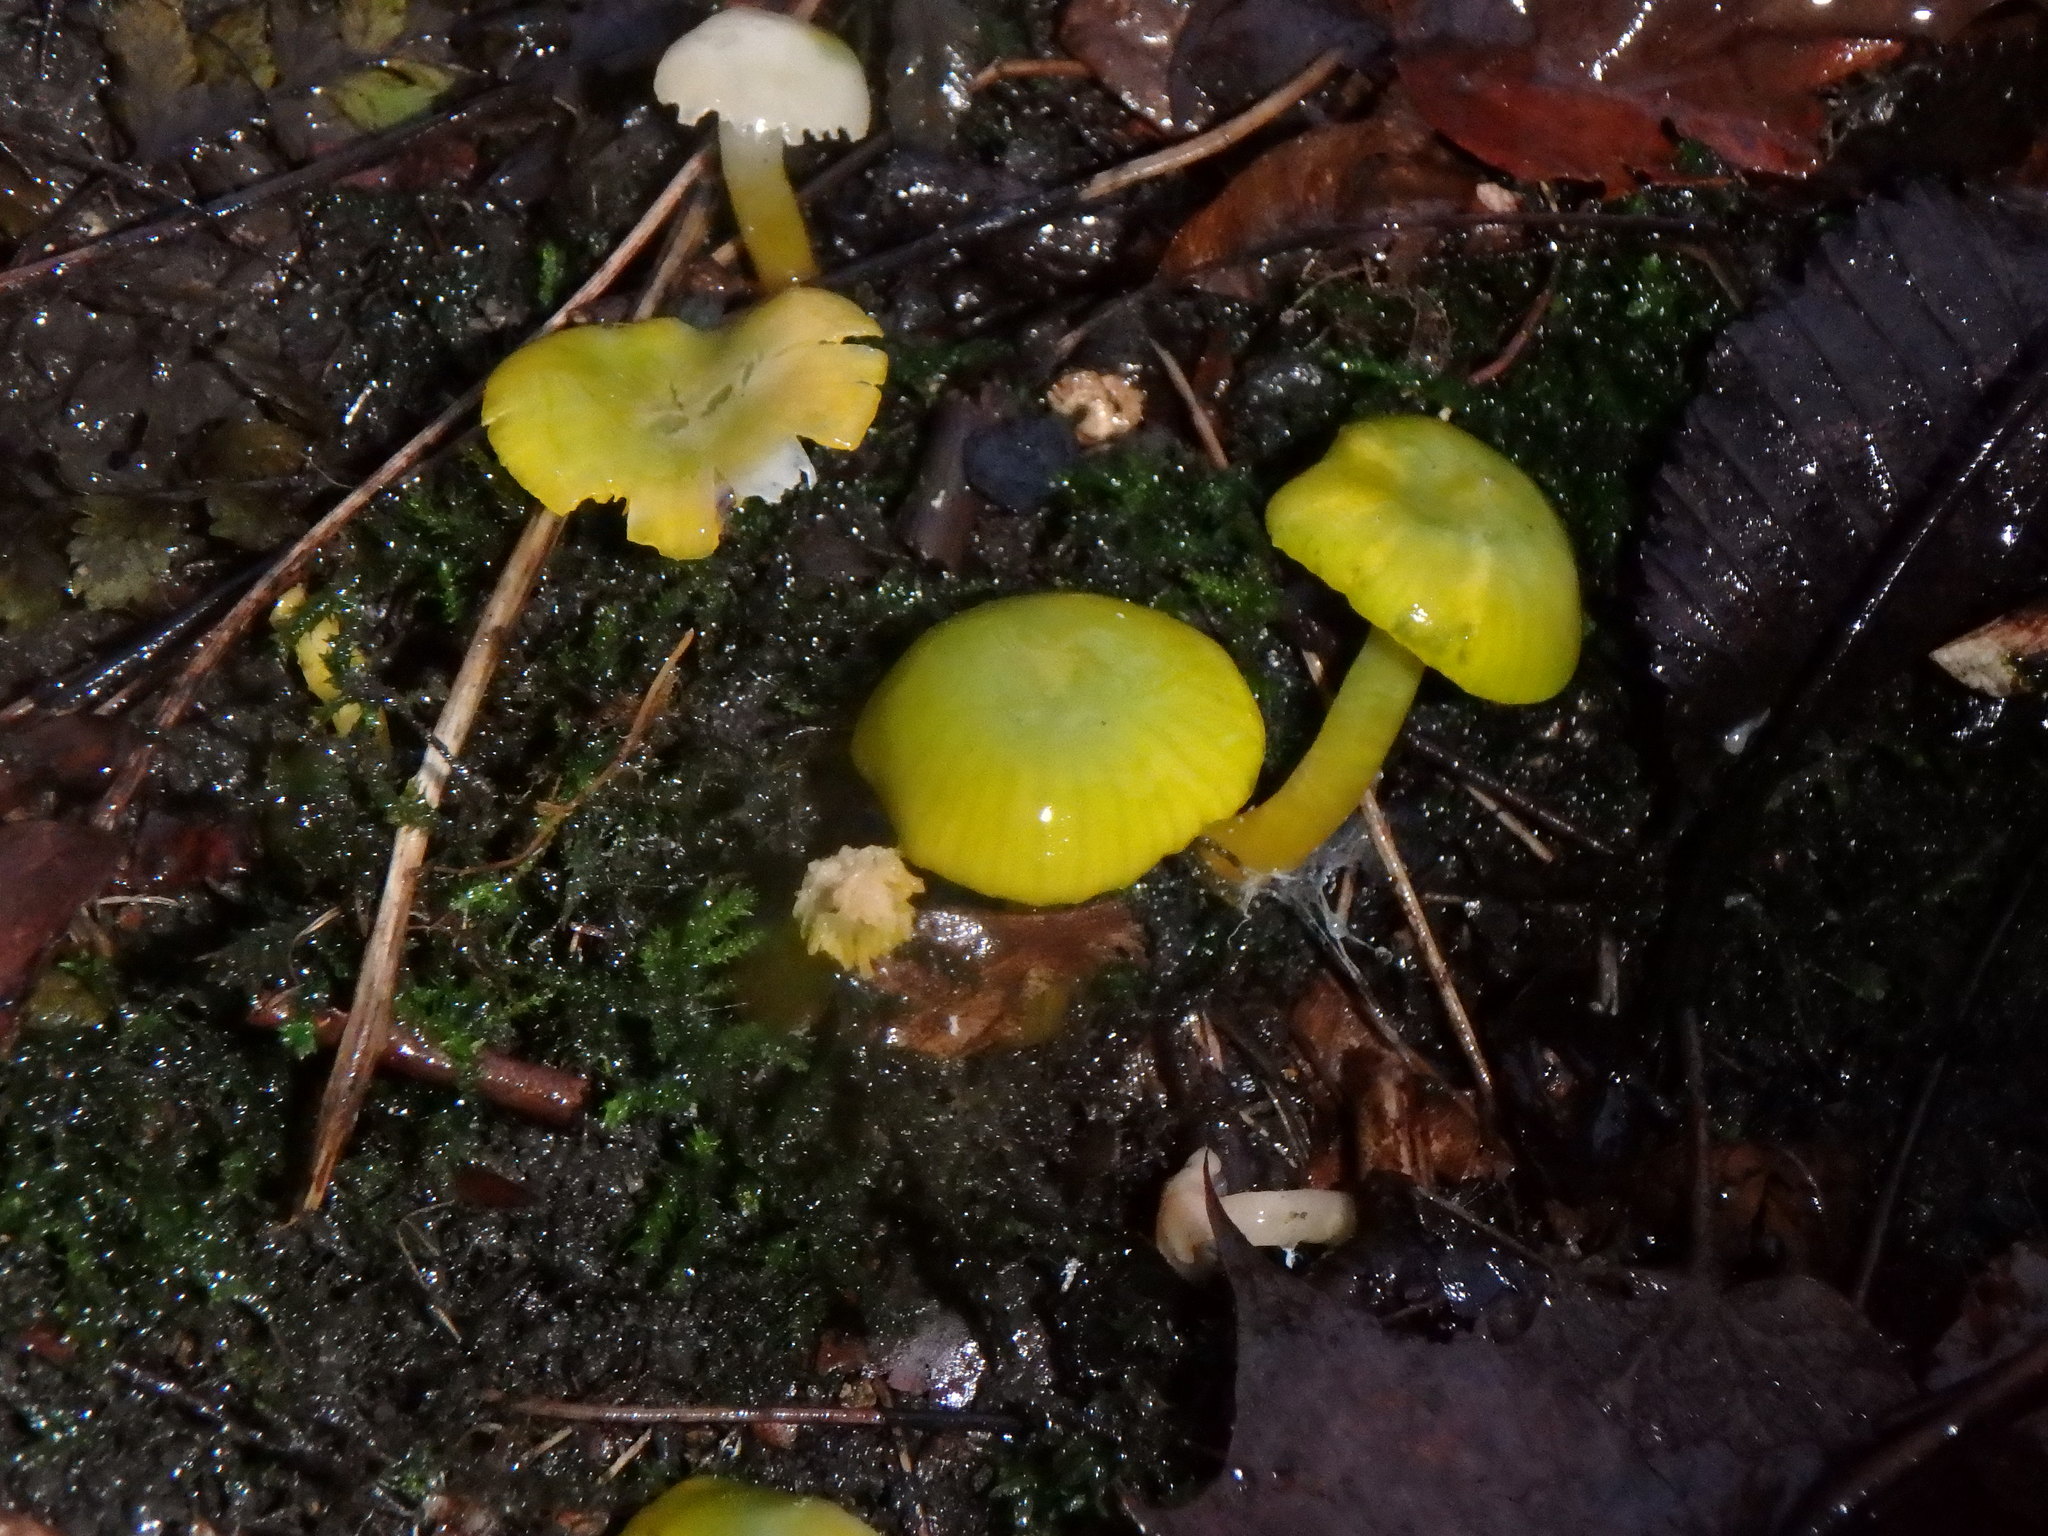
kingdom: Fungi
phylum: Basidiomycota
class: Agaricomycetes
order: Agaricales
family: Hygrophoraceae
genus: Gliophorus
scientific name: Gliophorus psittacinus
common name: Parrot wax-cap
